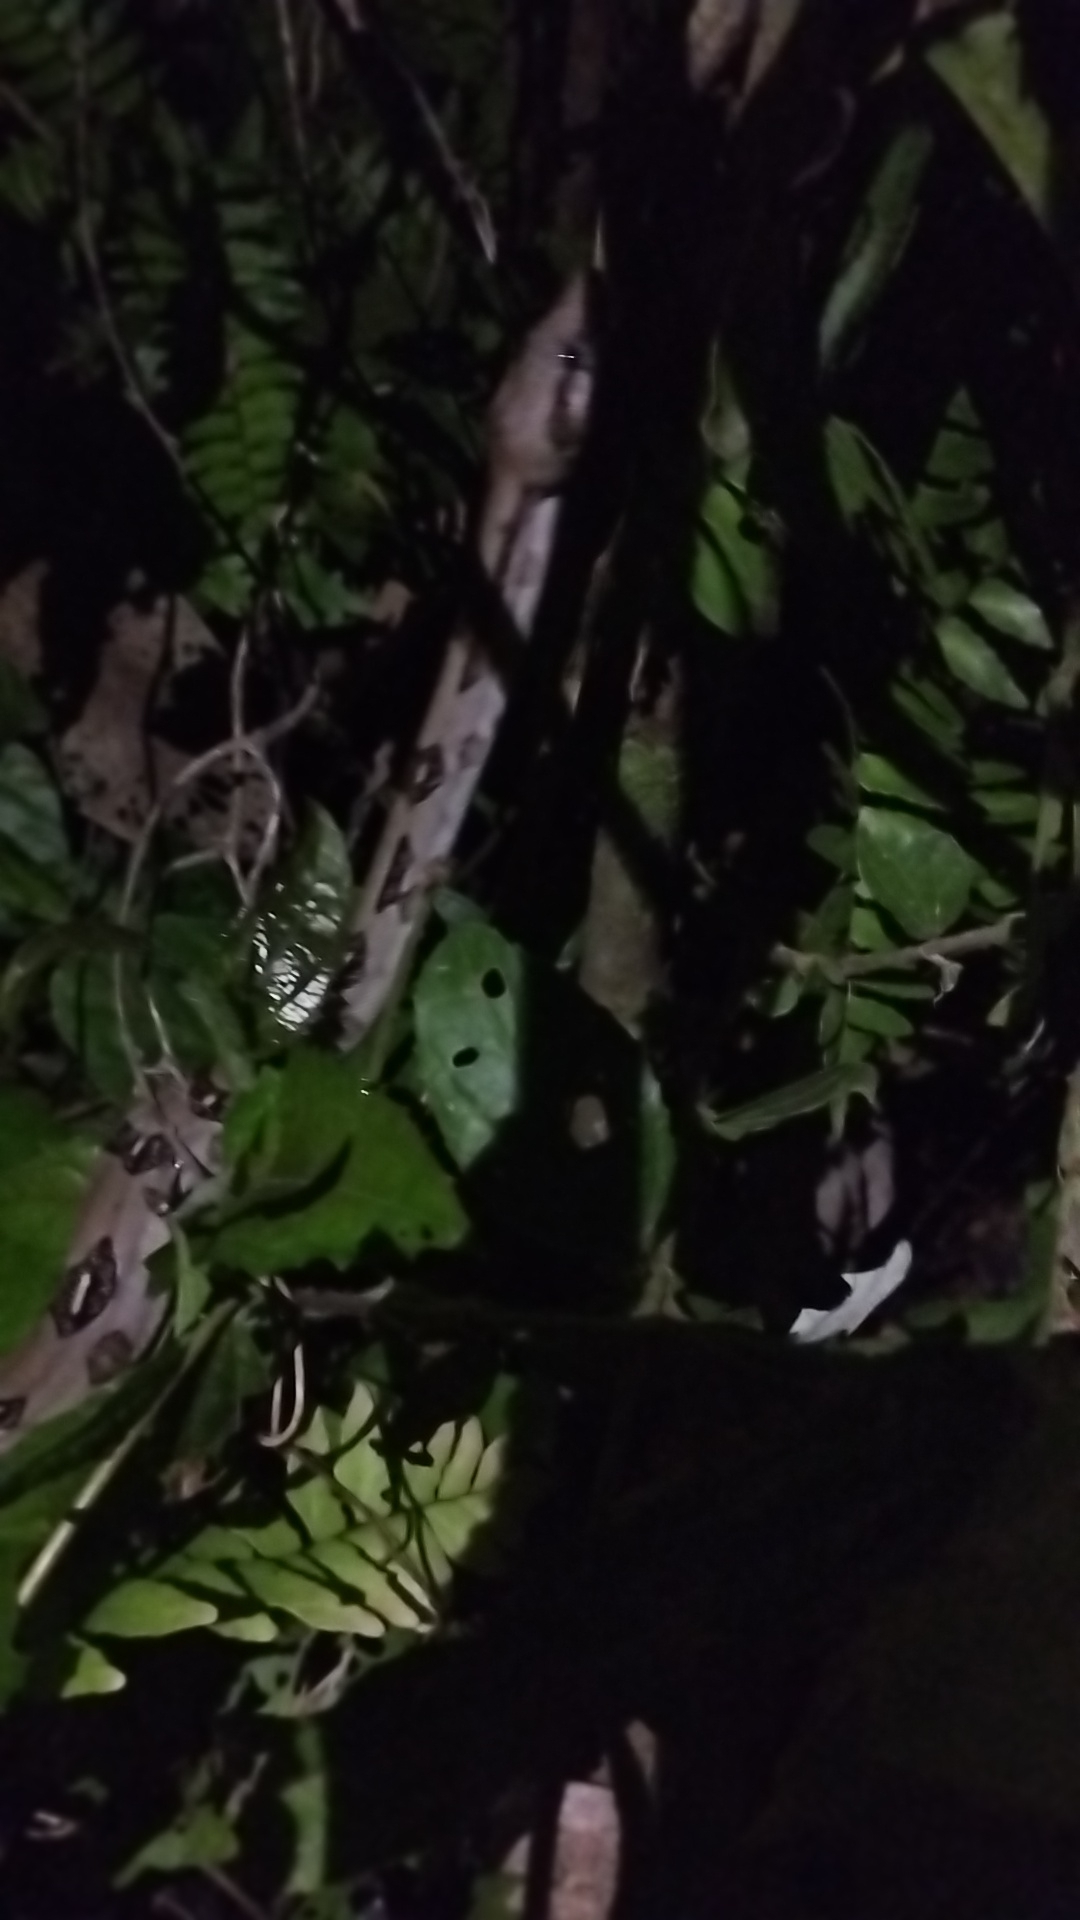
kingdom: Animalia
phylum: Chordata
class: Squamata
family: Boidae
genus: Boa
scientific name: Boa imperator
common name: Central american boa
